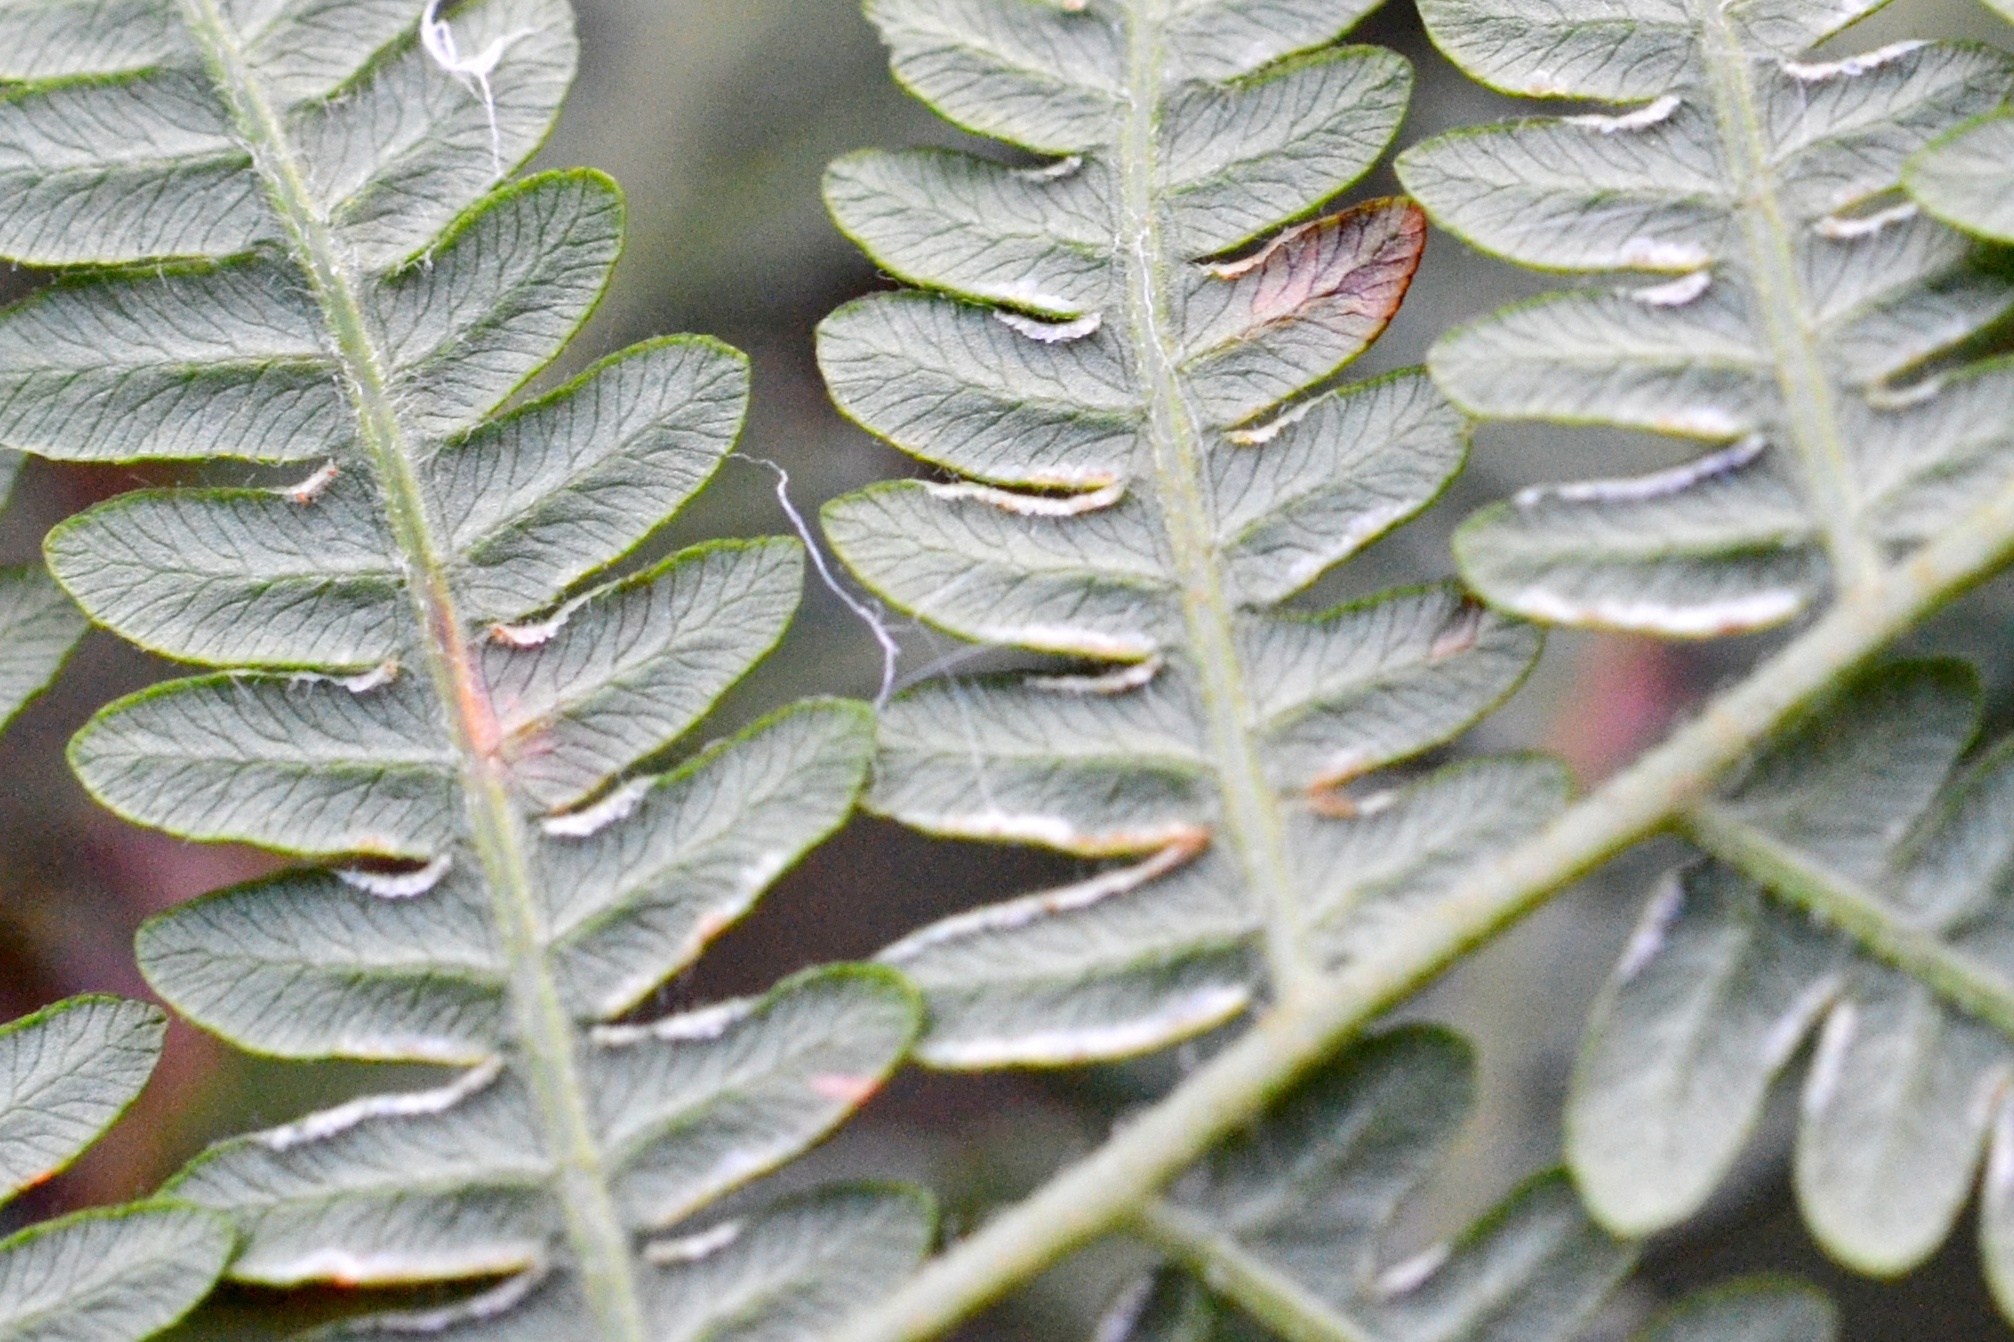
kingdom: Plantae
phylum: Tracheophyta
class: Polypodiopsida
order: Polypodiales
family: Dennstaedtiaceae
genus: Pteridium
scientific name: Pteridium aquilinum
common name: Bracken
